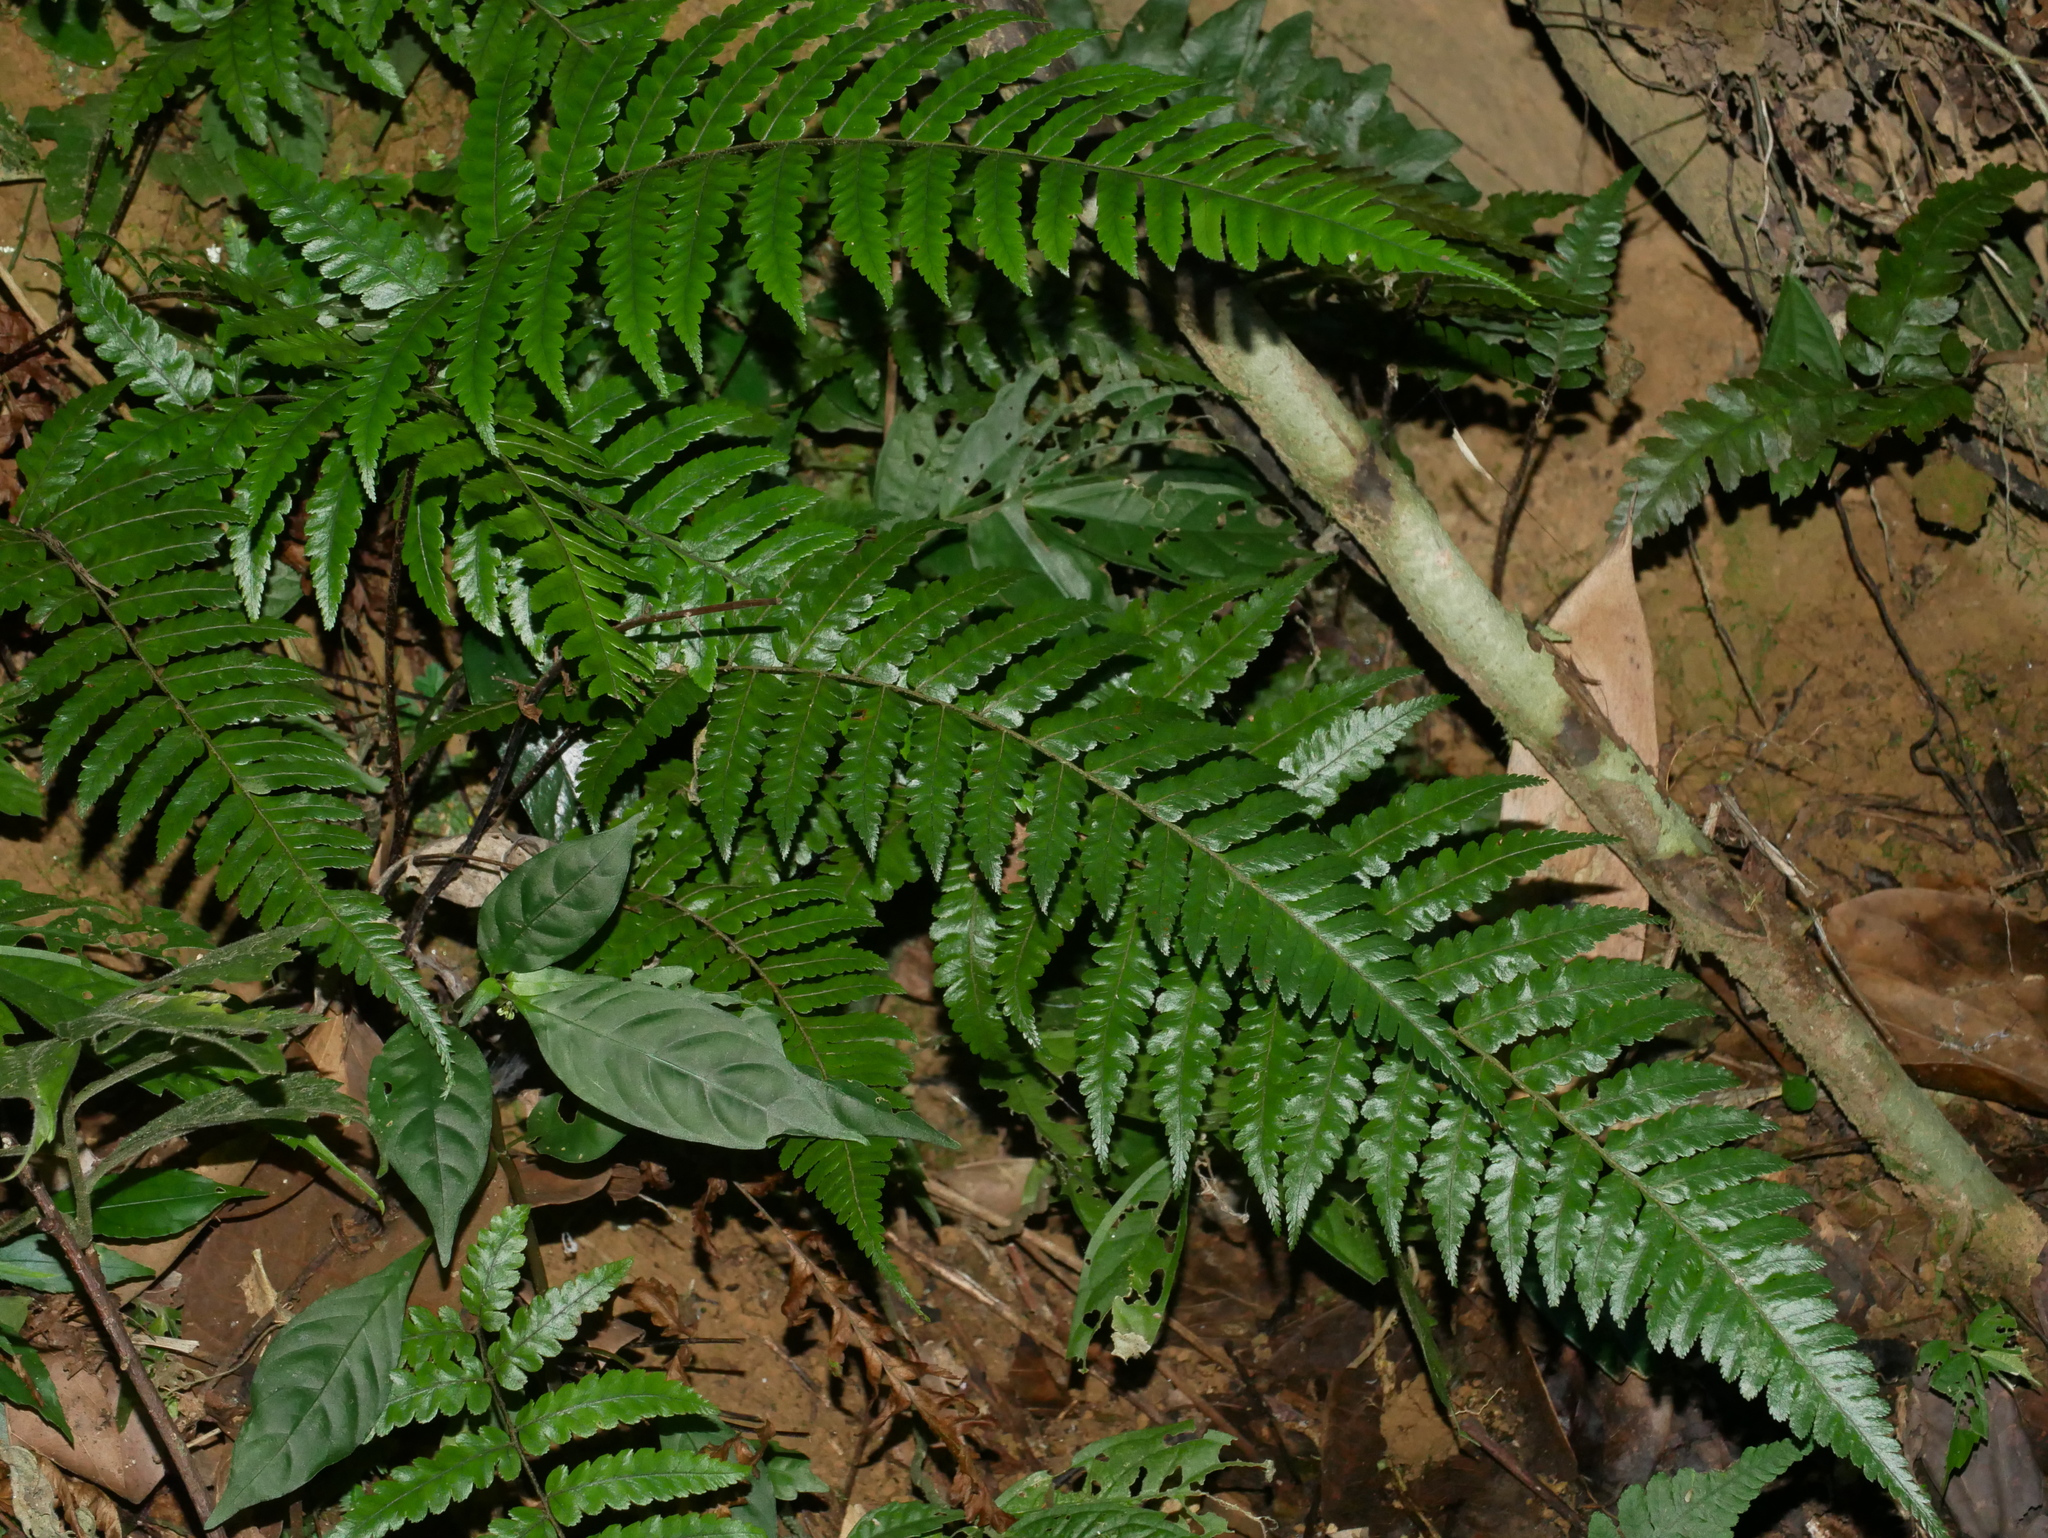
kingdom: Plantae
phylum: Tracheophyta
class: Polypodiopsida
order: Cyatheales
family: Cyatheaceae
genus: Gymnosphaera
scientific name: Gymnosphaera metteniana
